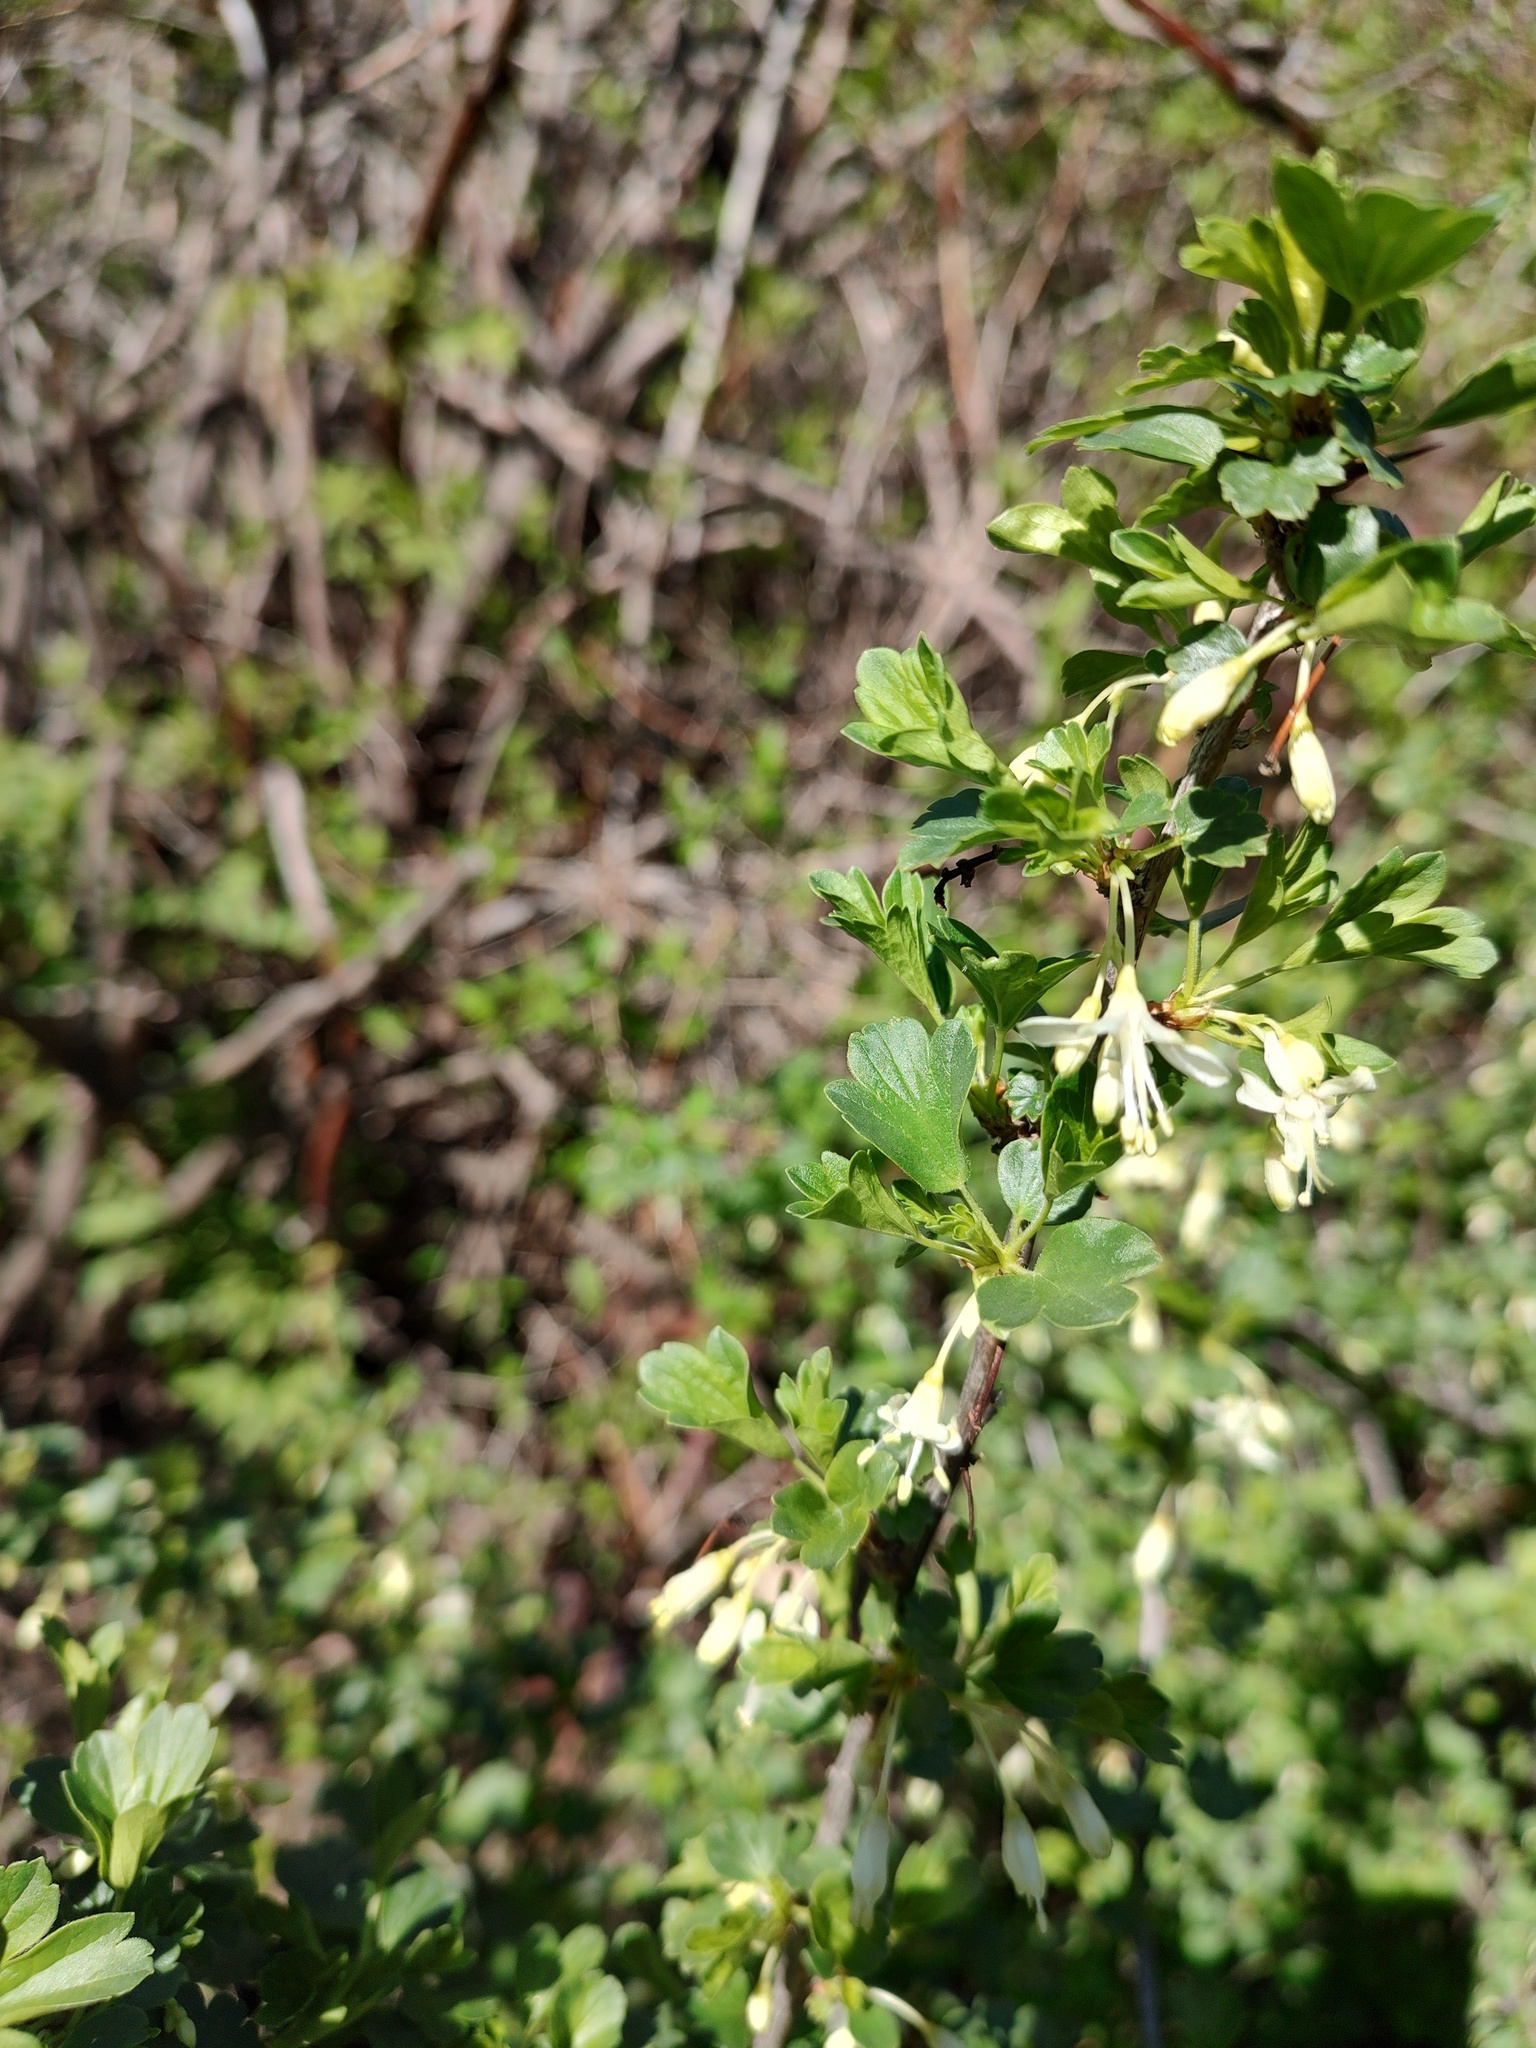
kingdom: Plantae
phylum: Tracheophyta
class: Magnoliopsida
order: Saxifragales
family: Grossulariaceae
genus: Ribes
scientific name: Ribes niveum
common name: Snake river gooseberry
